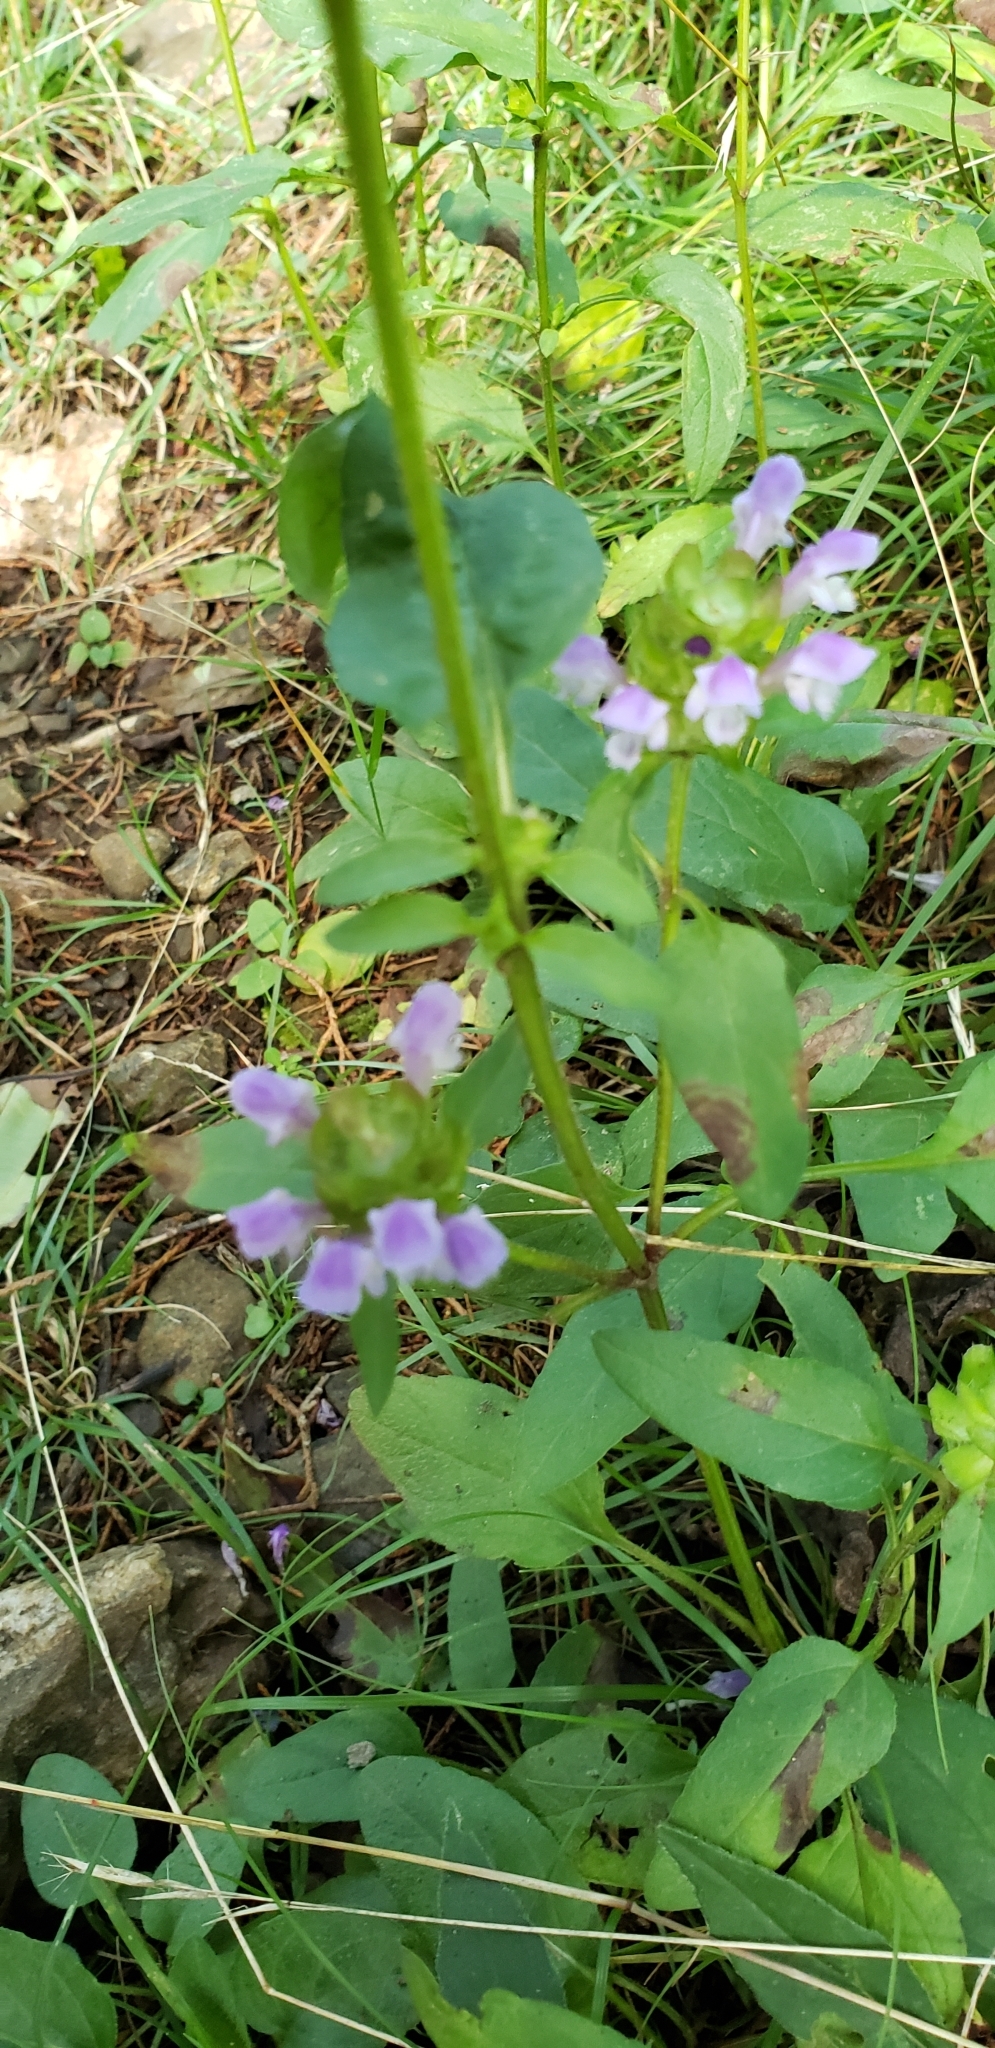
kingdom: Plantae
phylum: Tracheophyta
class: Magnoliopsida
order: Lamiales
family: Lamiaceae
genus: Prunella
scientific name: Prunella vulgaris
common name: Heal-all
